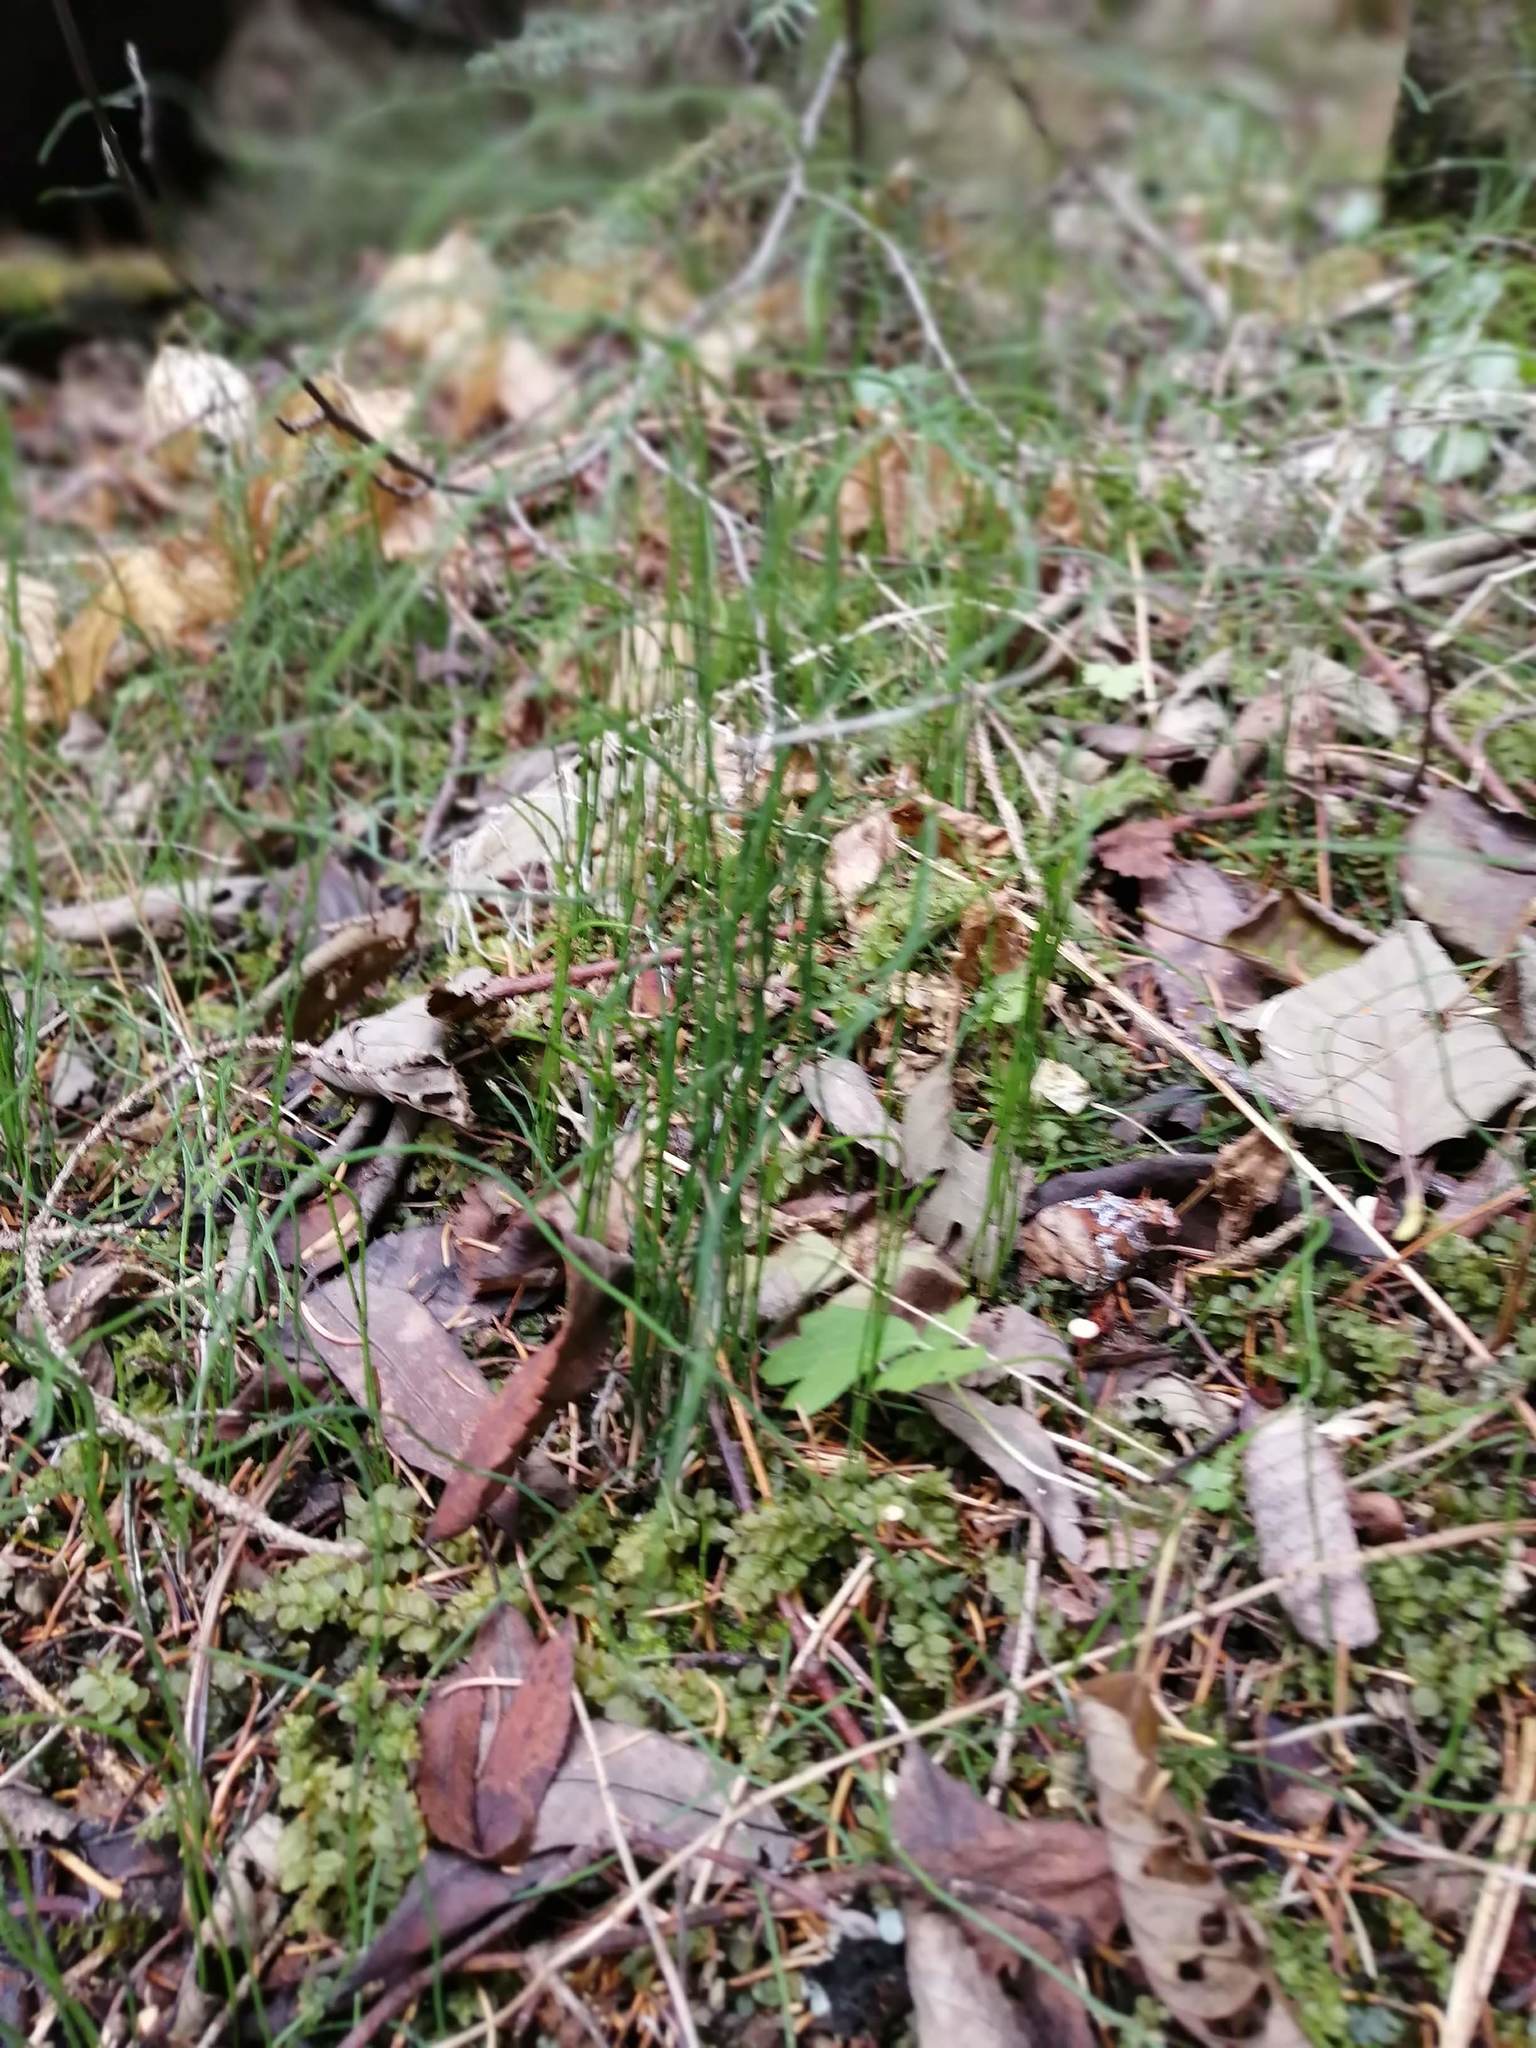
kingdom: Plantae
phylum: Tracheophyta
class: Polypodiopsida
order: Equisetales
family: Equisetaceae
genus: Equisetum
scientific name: Equisetum scirpoides
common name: Delicate horsetail
